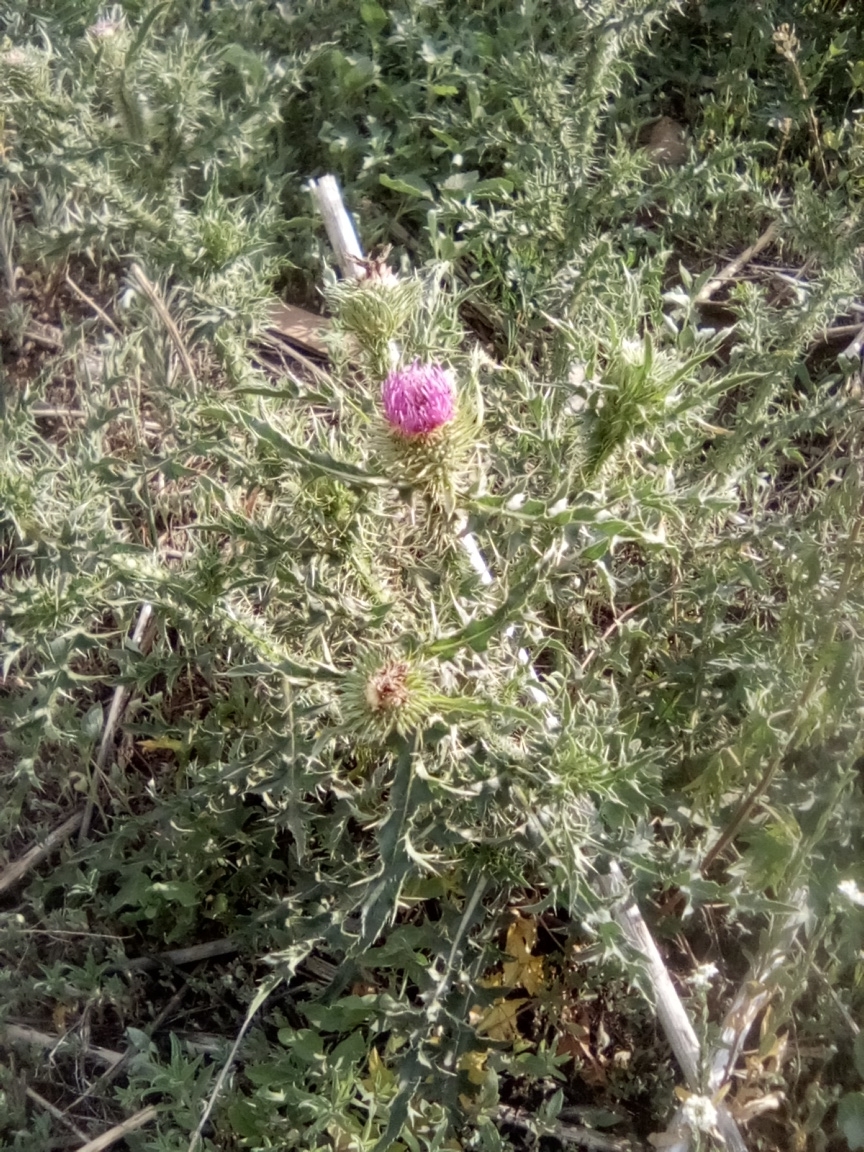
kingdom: Plantae
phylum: Tracheophyta
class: Magnoliopsida
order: Asterales
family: Asteraceae
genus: Carduus
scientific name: Carduus acanthoides
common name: Plumeless thistle
